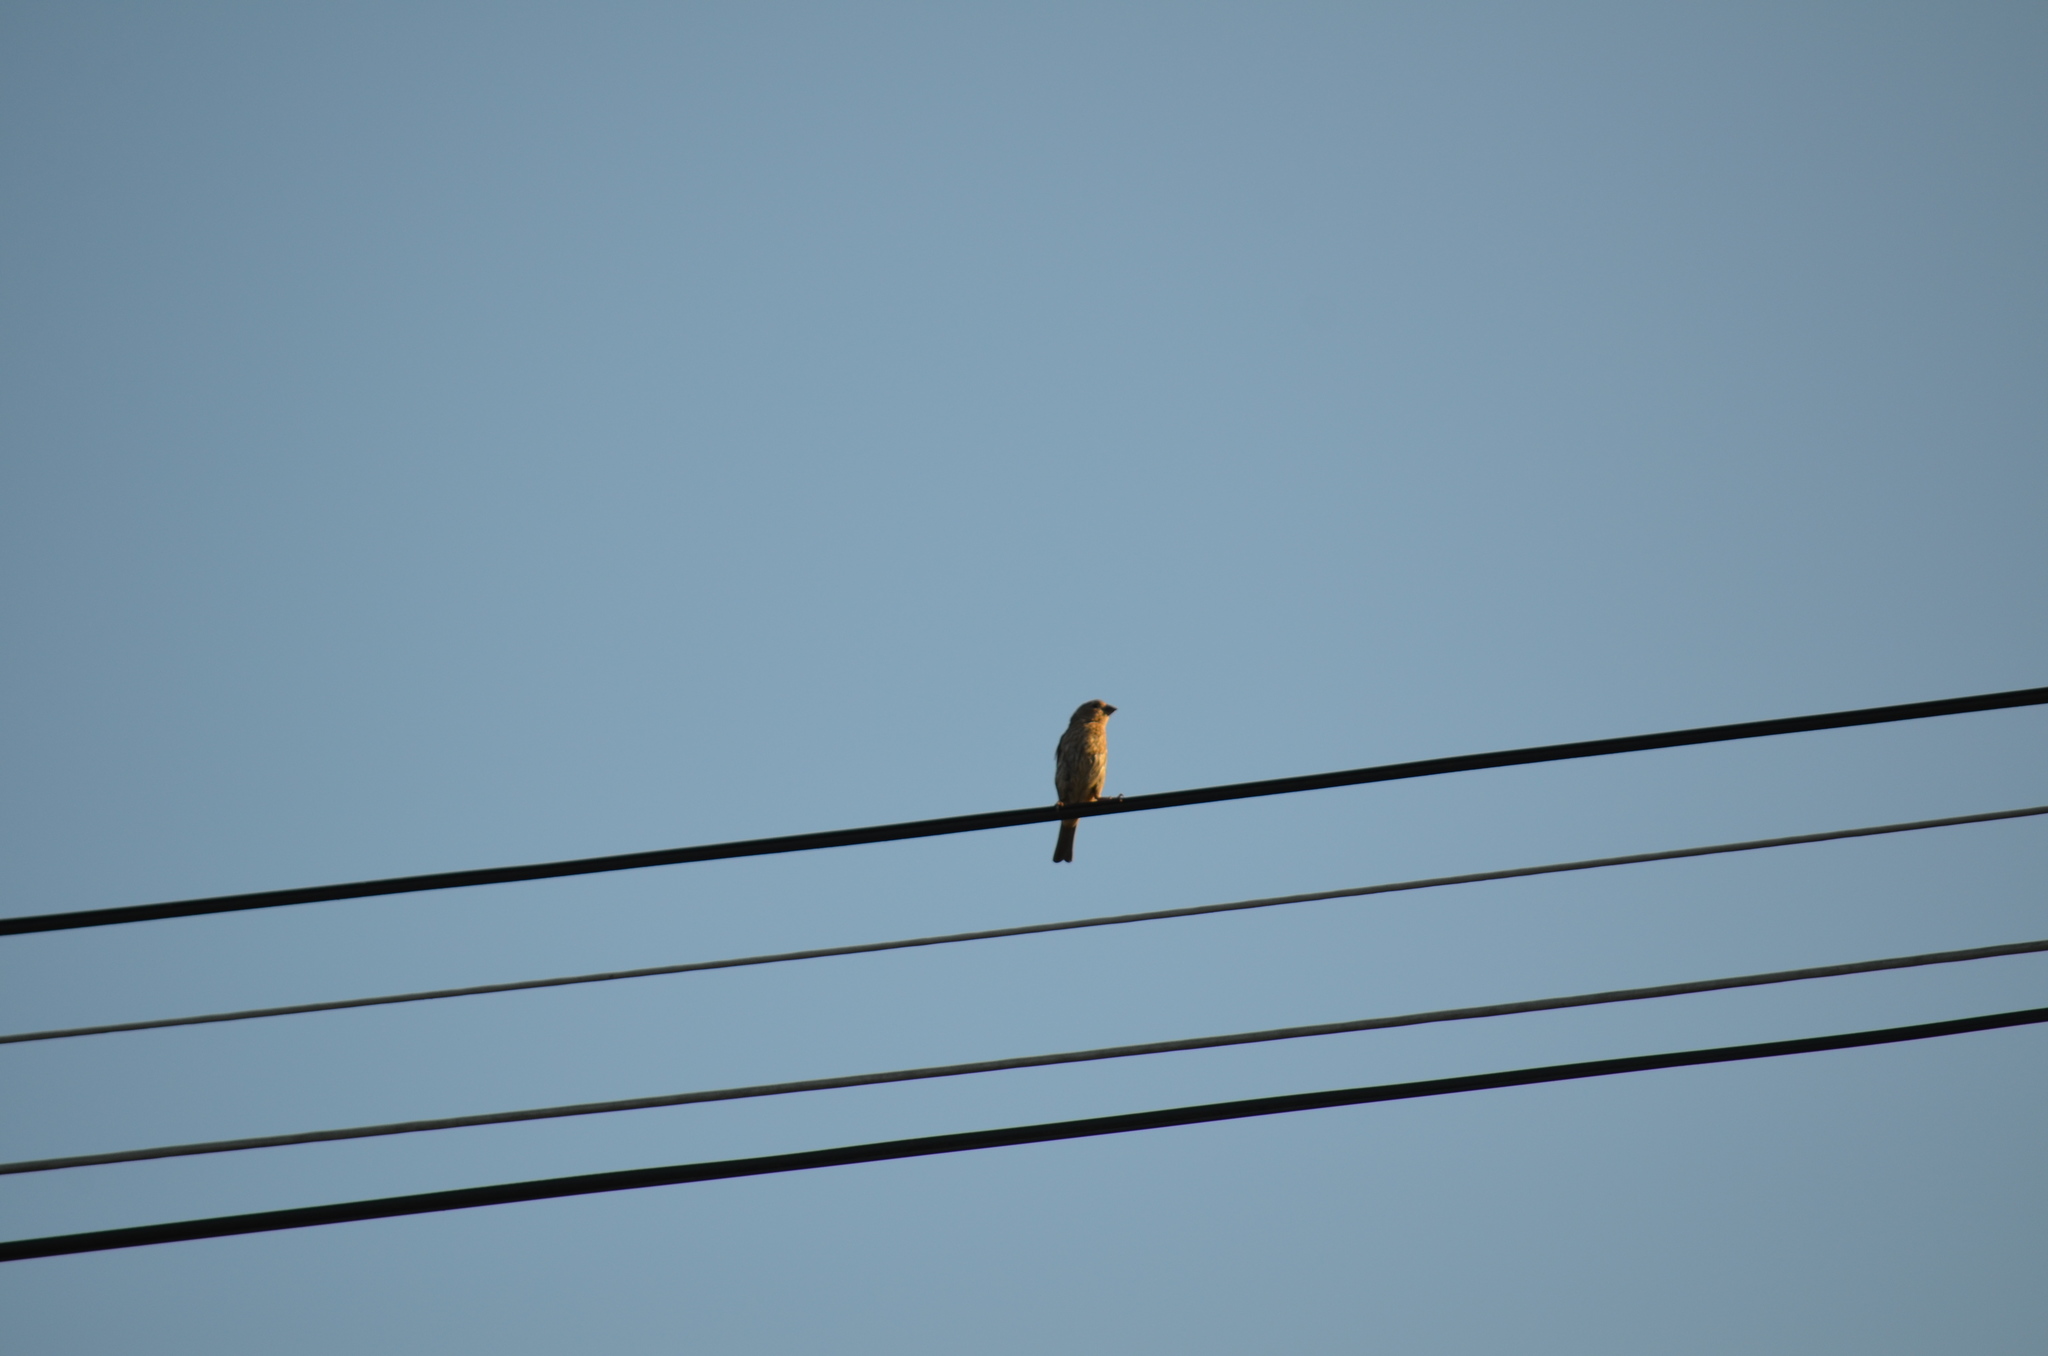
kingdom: Animalia
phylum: Chordata
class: Aves
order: Passeriformes
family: Fringillidae
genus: Haemorhous
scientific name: Haemorhous mexicanus
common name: House finch
